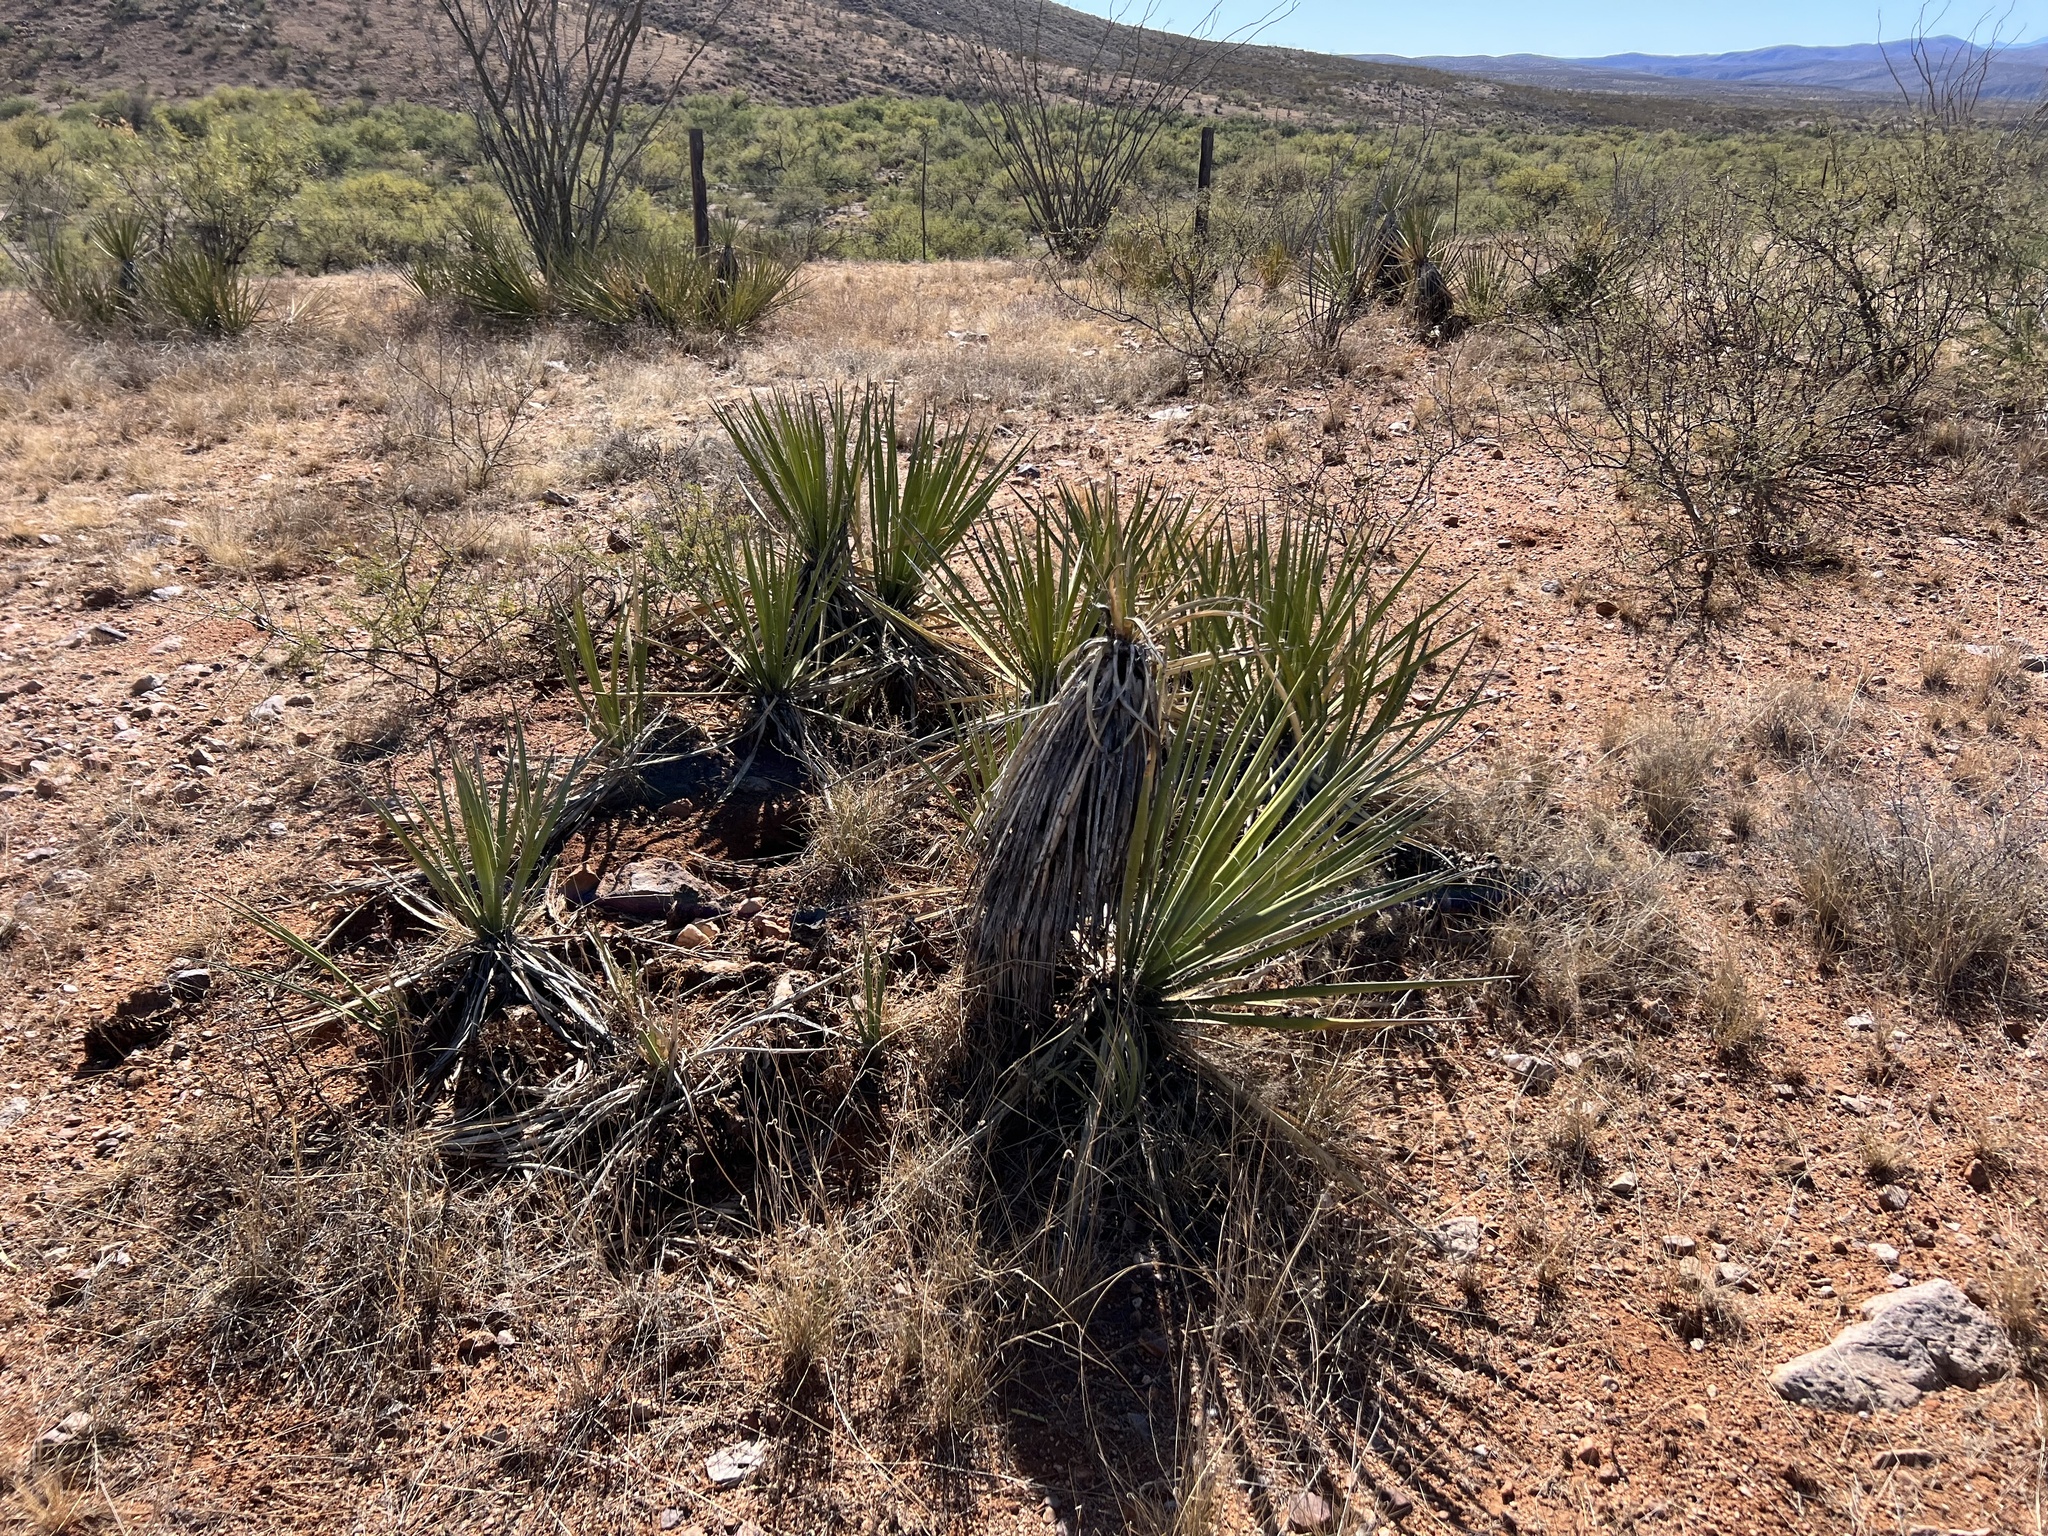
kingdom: Plantae
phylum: Tracheophyta
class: Liliopsida
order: Asparagales
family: Asparagaceae
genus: Yucca
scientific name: Yucca baccata
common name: Banana yucca
